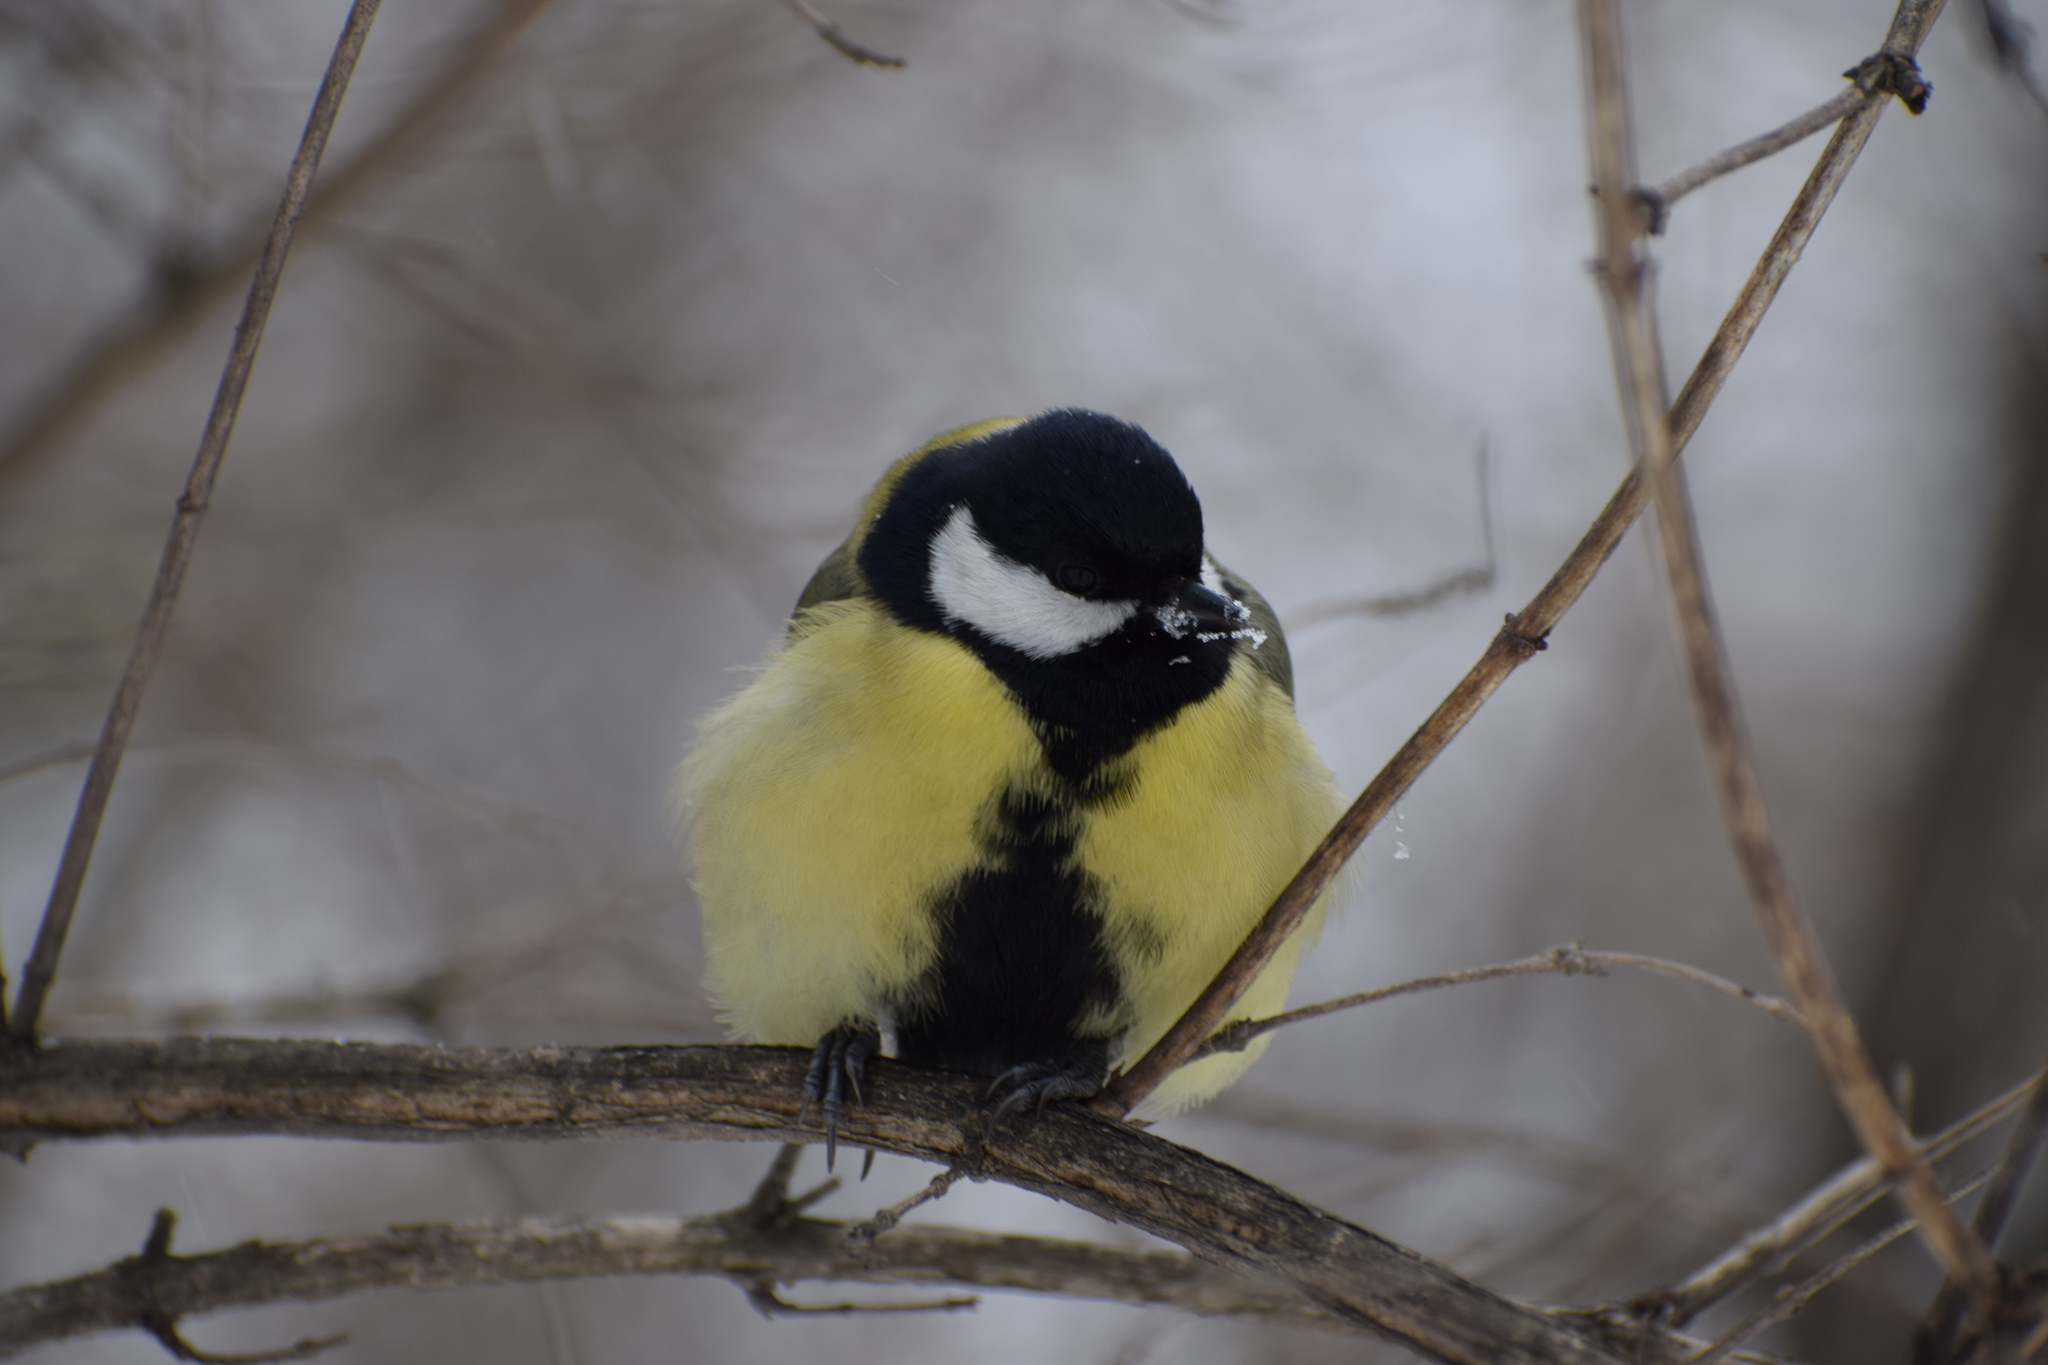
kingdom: Animalia
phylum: Chordata
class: Aves
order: Passeriformes
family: Paridae
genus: Parus
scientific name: Parus major
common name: Great tit
